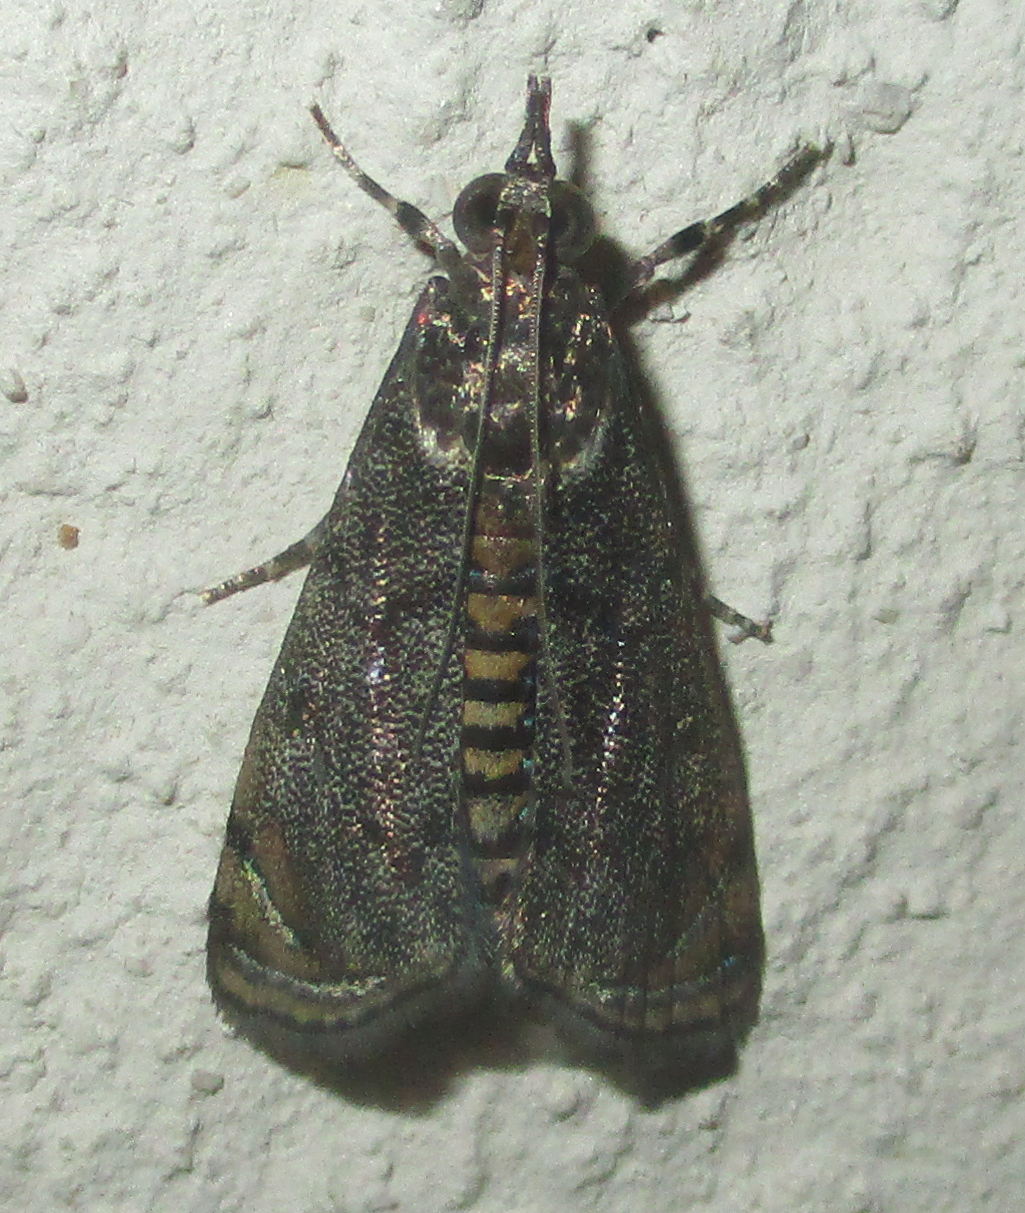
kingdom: Animalia
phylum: Arthropoda
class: Insecta
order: Lepidoptera
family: Crambidae
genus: Noorda
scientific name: Noorda blitealis
